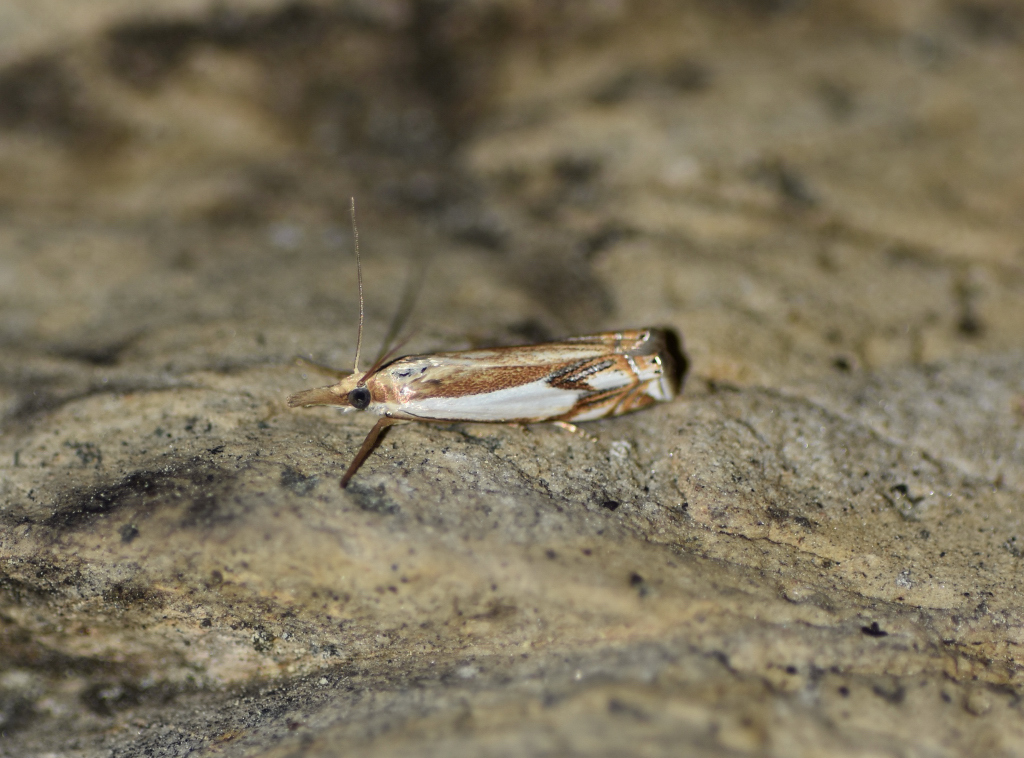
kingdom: Animalia
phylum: Arthropoda
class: Insecta
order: Lepidoptera
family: Crambidae
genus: Crambus
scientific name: Crambus agitatellus
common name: Double-banded grass-veneer
